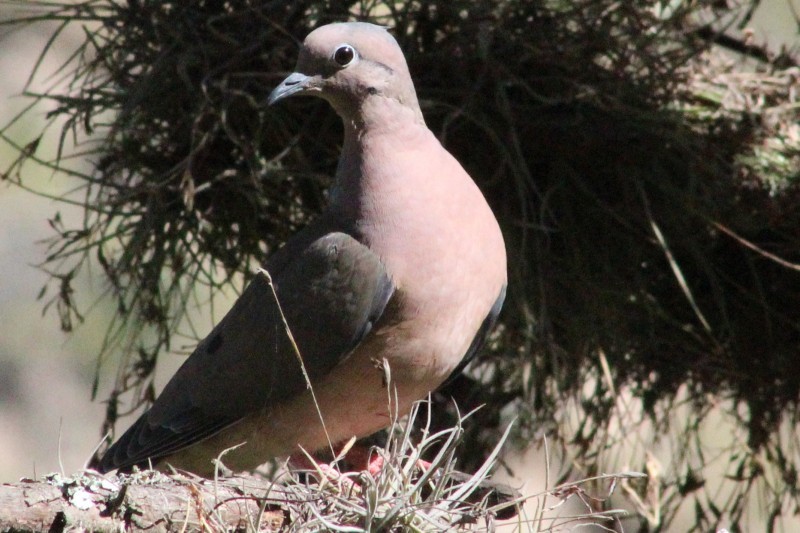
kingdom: Animalia
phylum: Chordata
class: Aves
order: Columbiformes
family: Columbidae
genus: Zenaida
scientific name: Zenaida auriculata
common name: Eared dove
